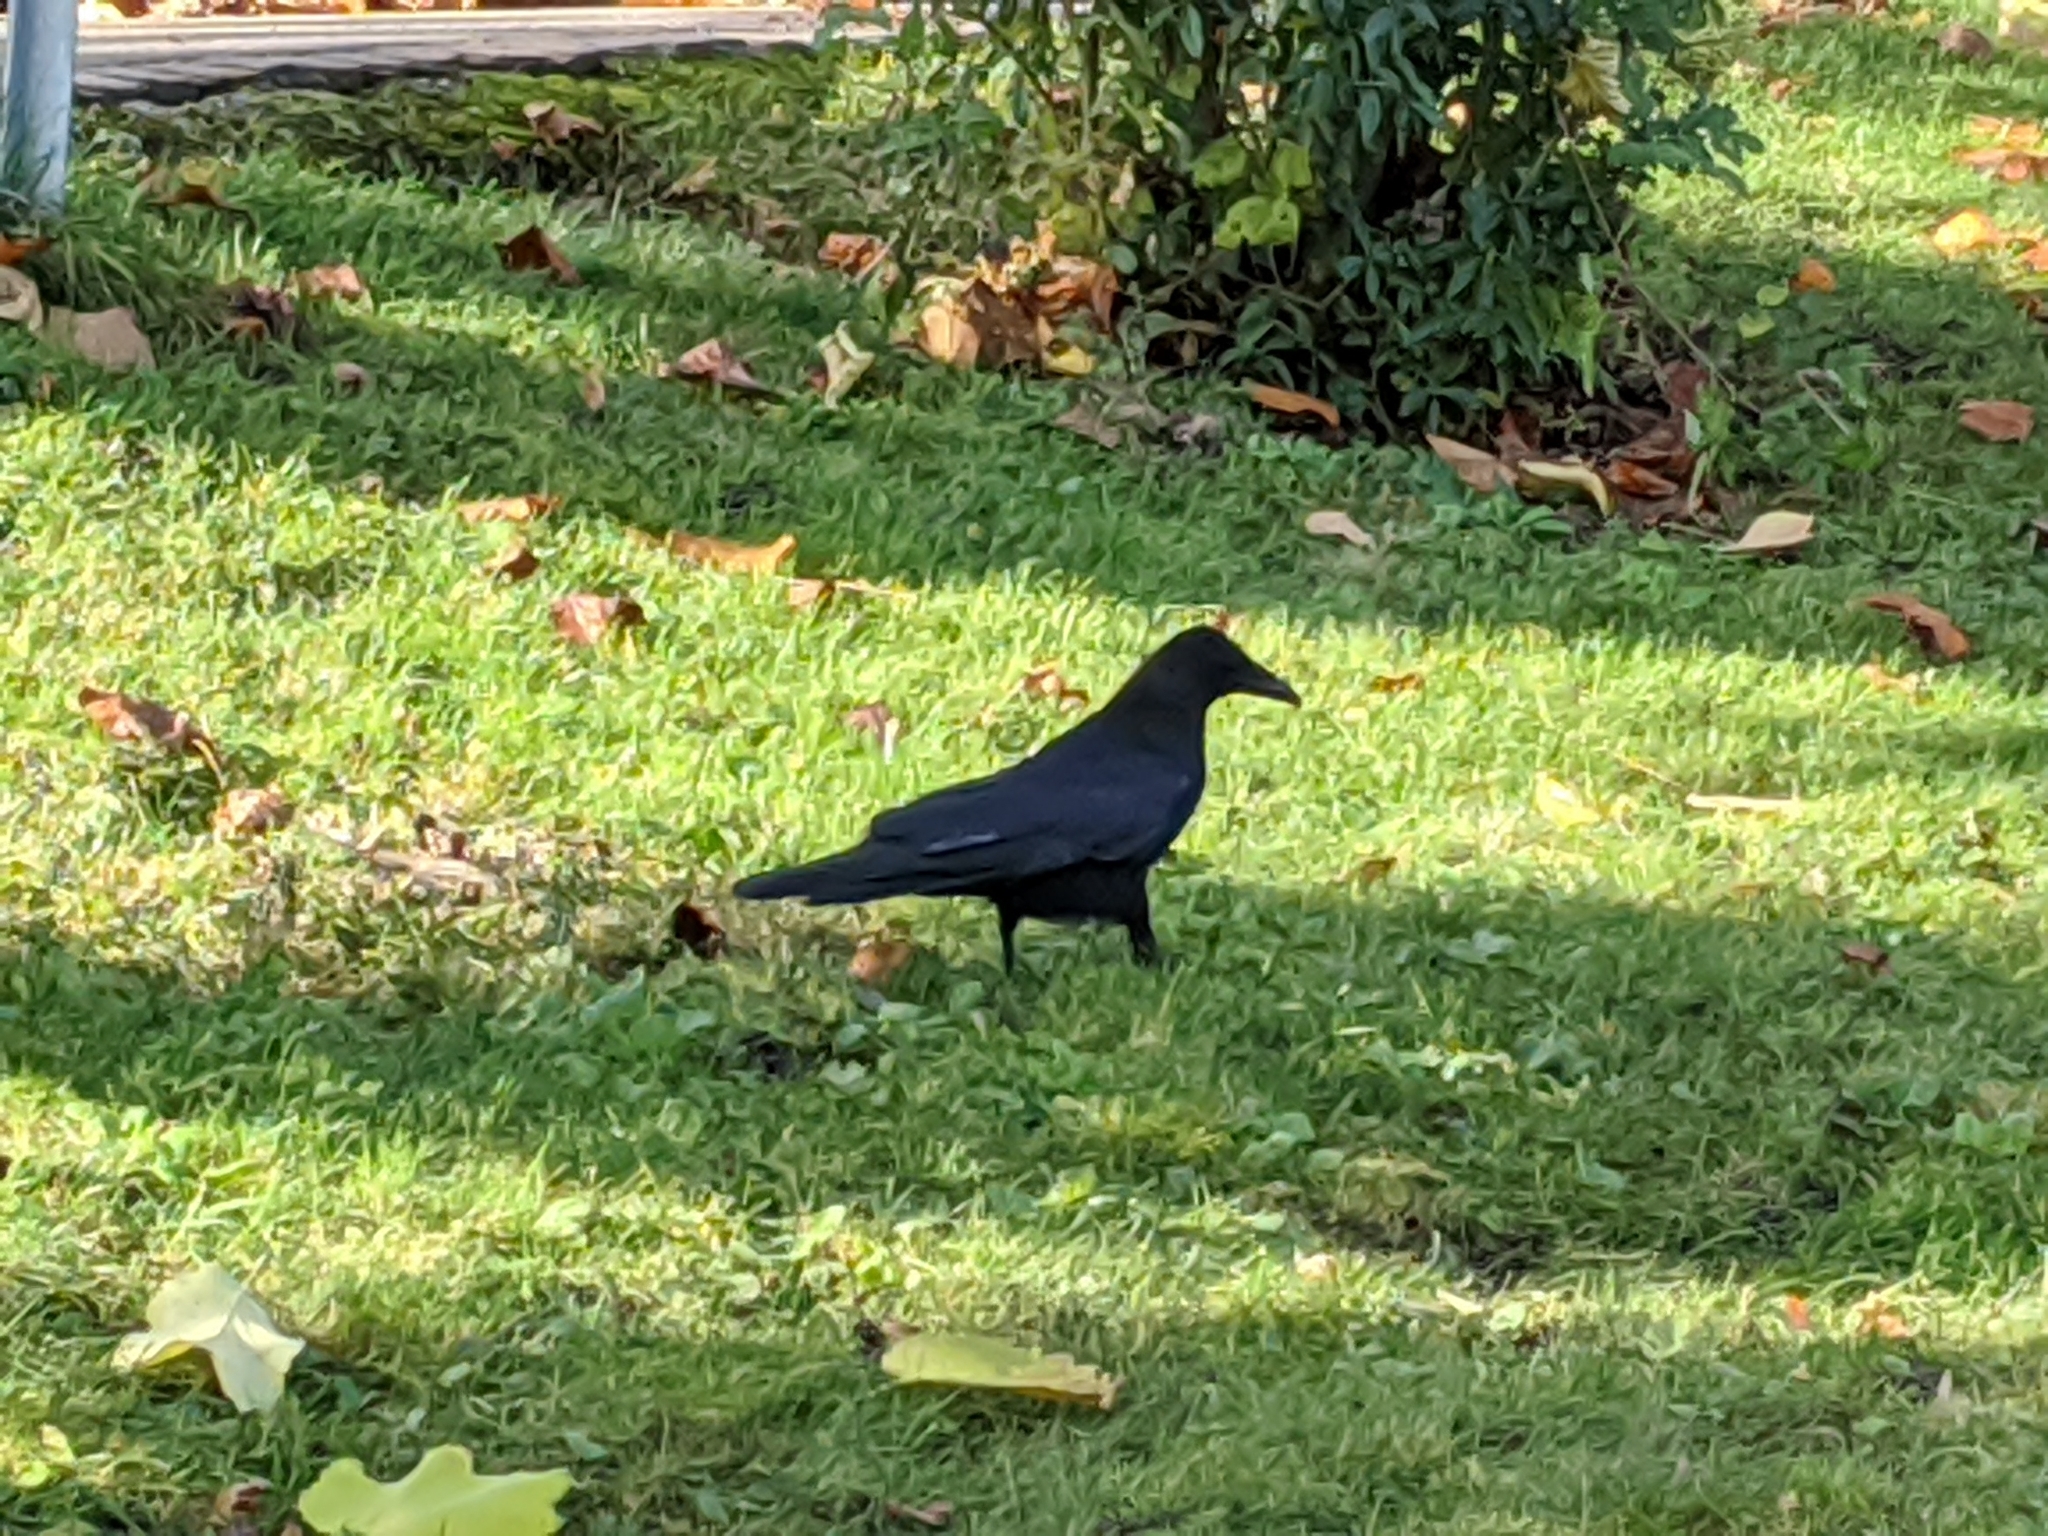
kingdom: Animalia
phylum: Chordata
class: Aves
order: Passeriformes
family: Corvidae
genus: Corvus
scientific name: Corvus corone
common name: Carrion crow
